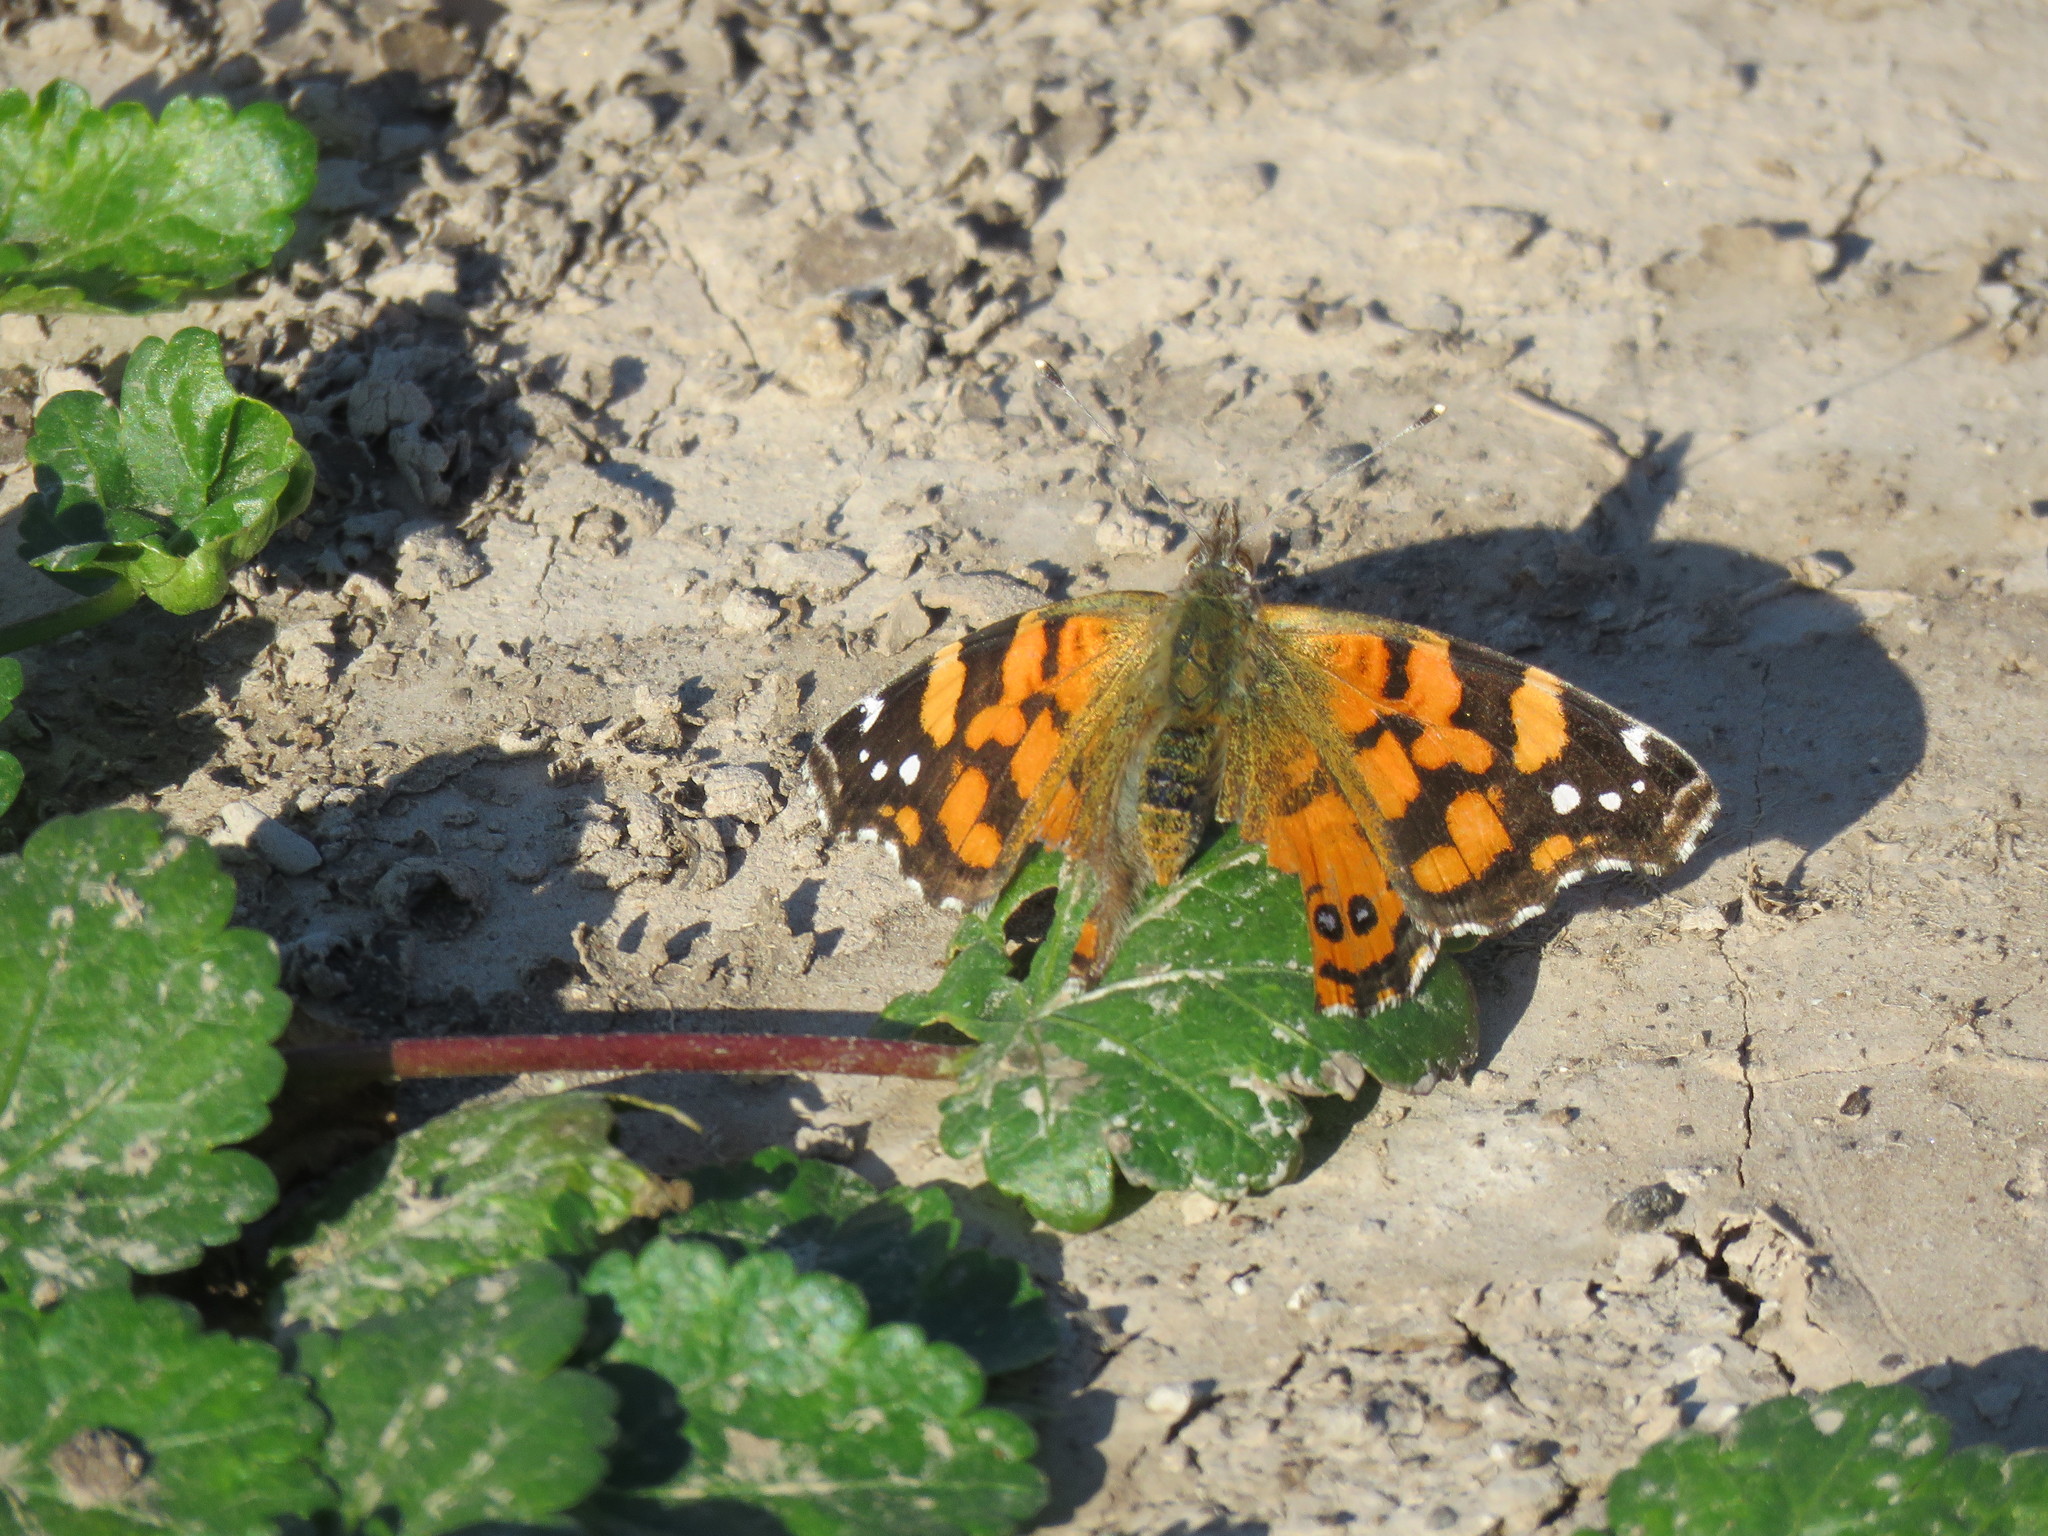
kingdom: Animalia
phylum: Arthropoda
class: Insecta
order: Lepidoptera
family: Nymphalidae
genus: Vanessa
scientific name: Vanessa carye
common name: Subtropical lady
